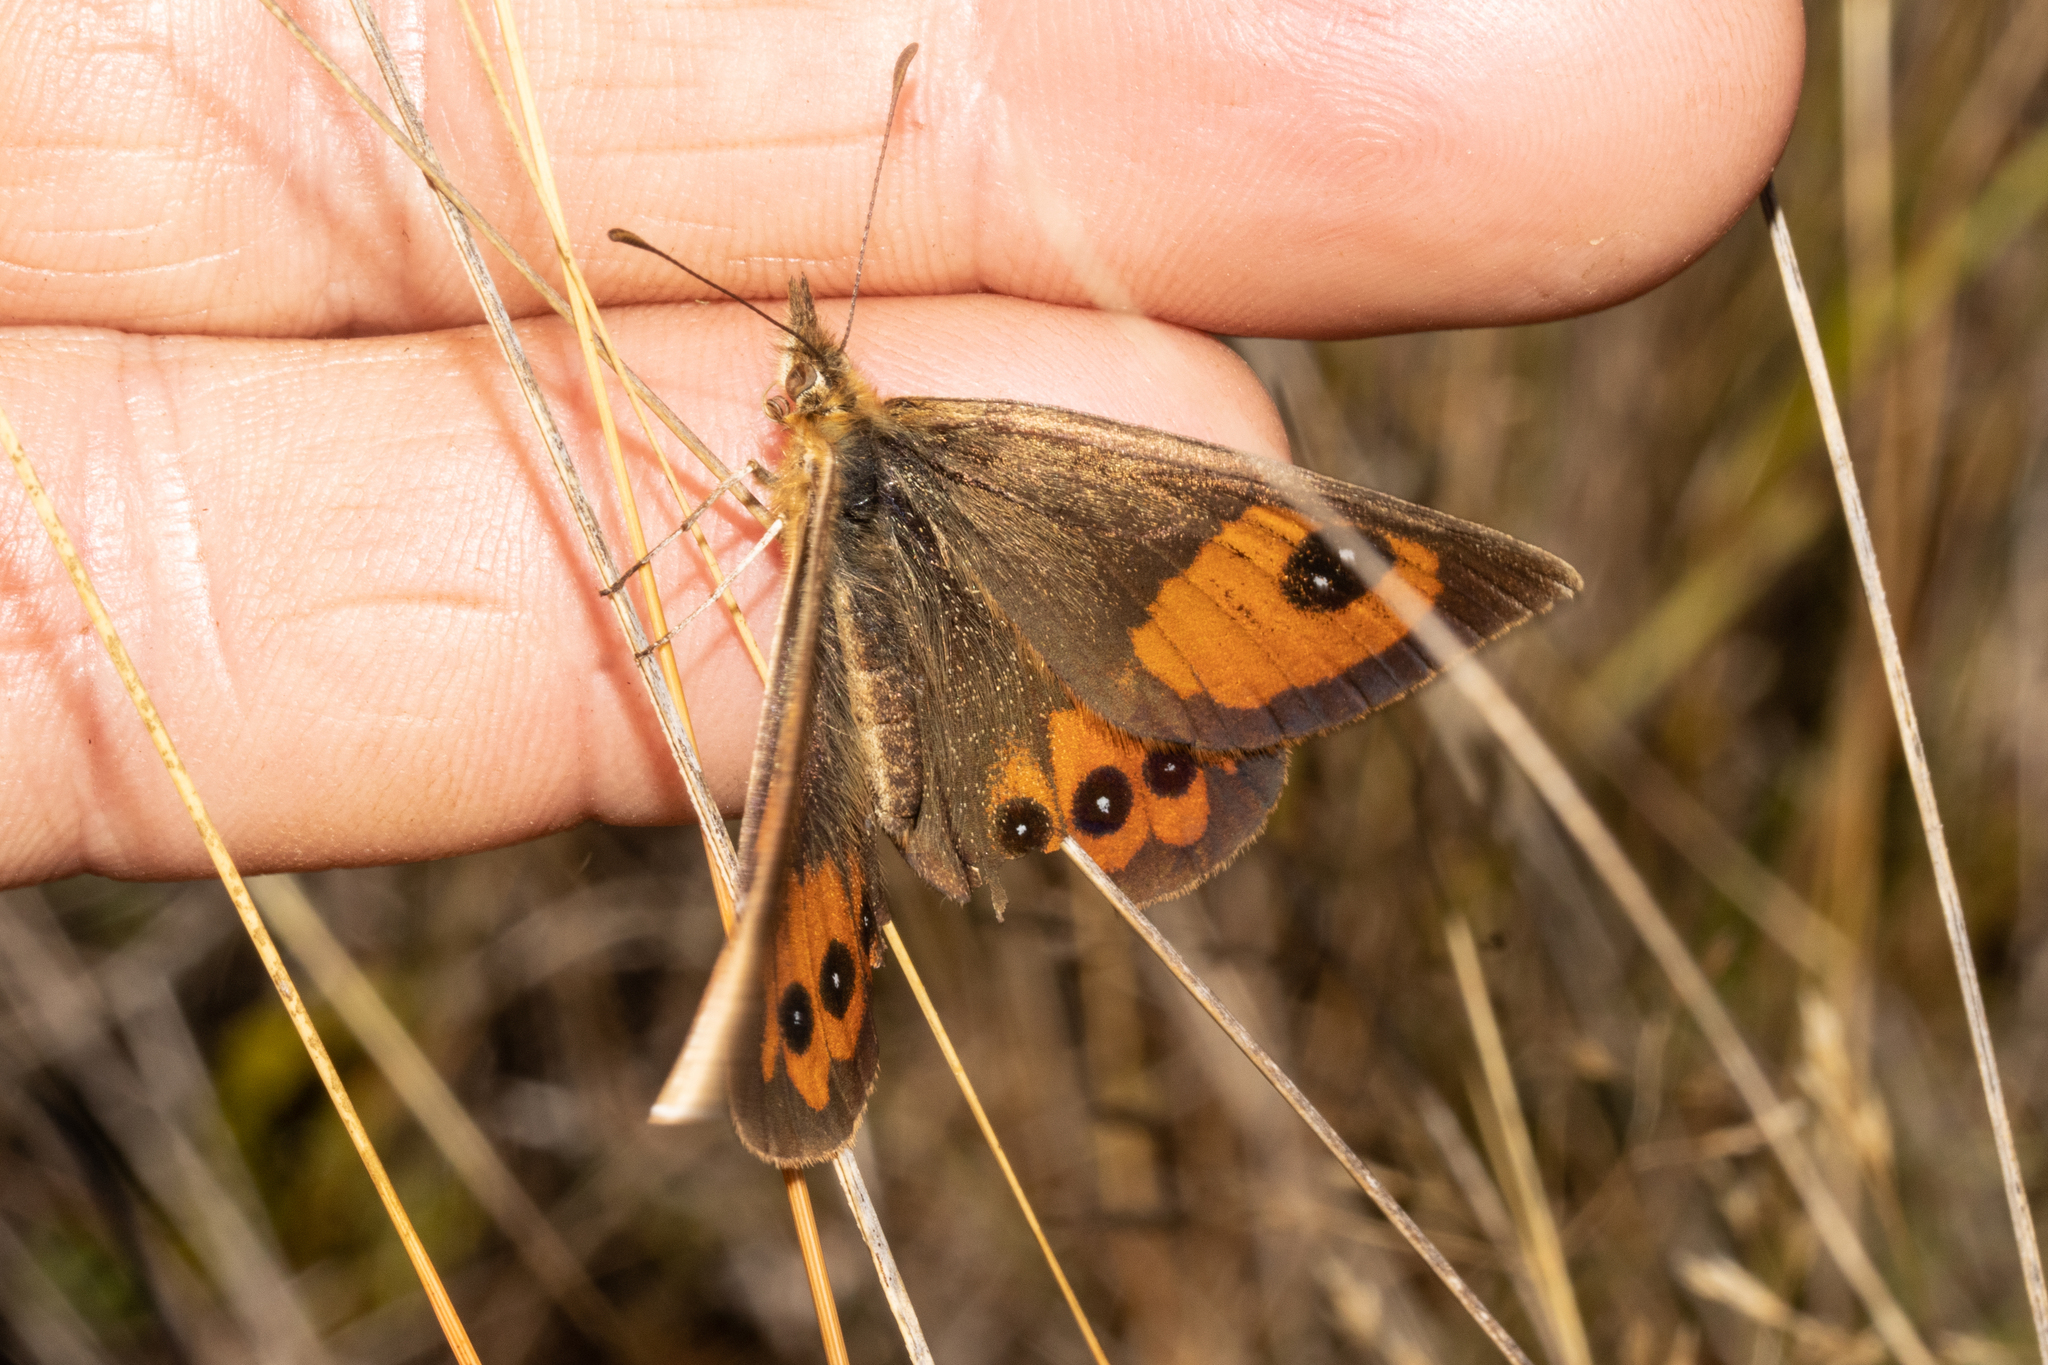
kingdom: Animalia
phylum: Arthropoda
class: Insecta
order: Lepidoptera
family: Nymphalidae
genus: Argyrophenga
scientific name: Argyrophenga antipodum
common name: Common tussock butterfly
